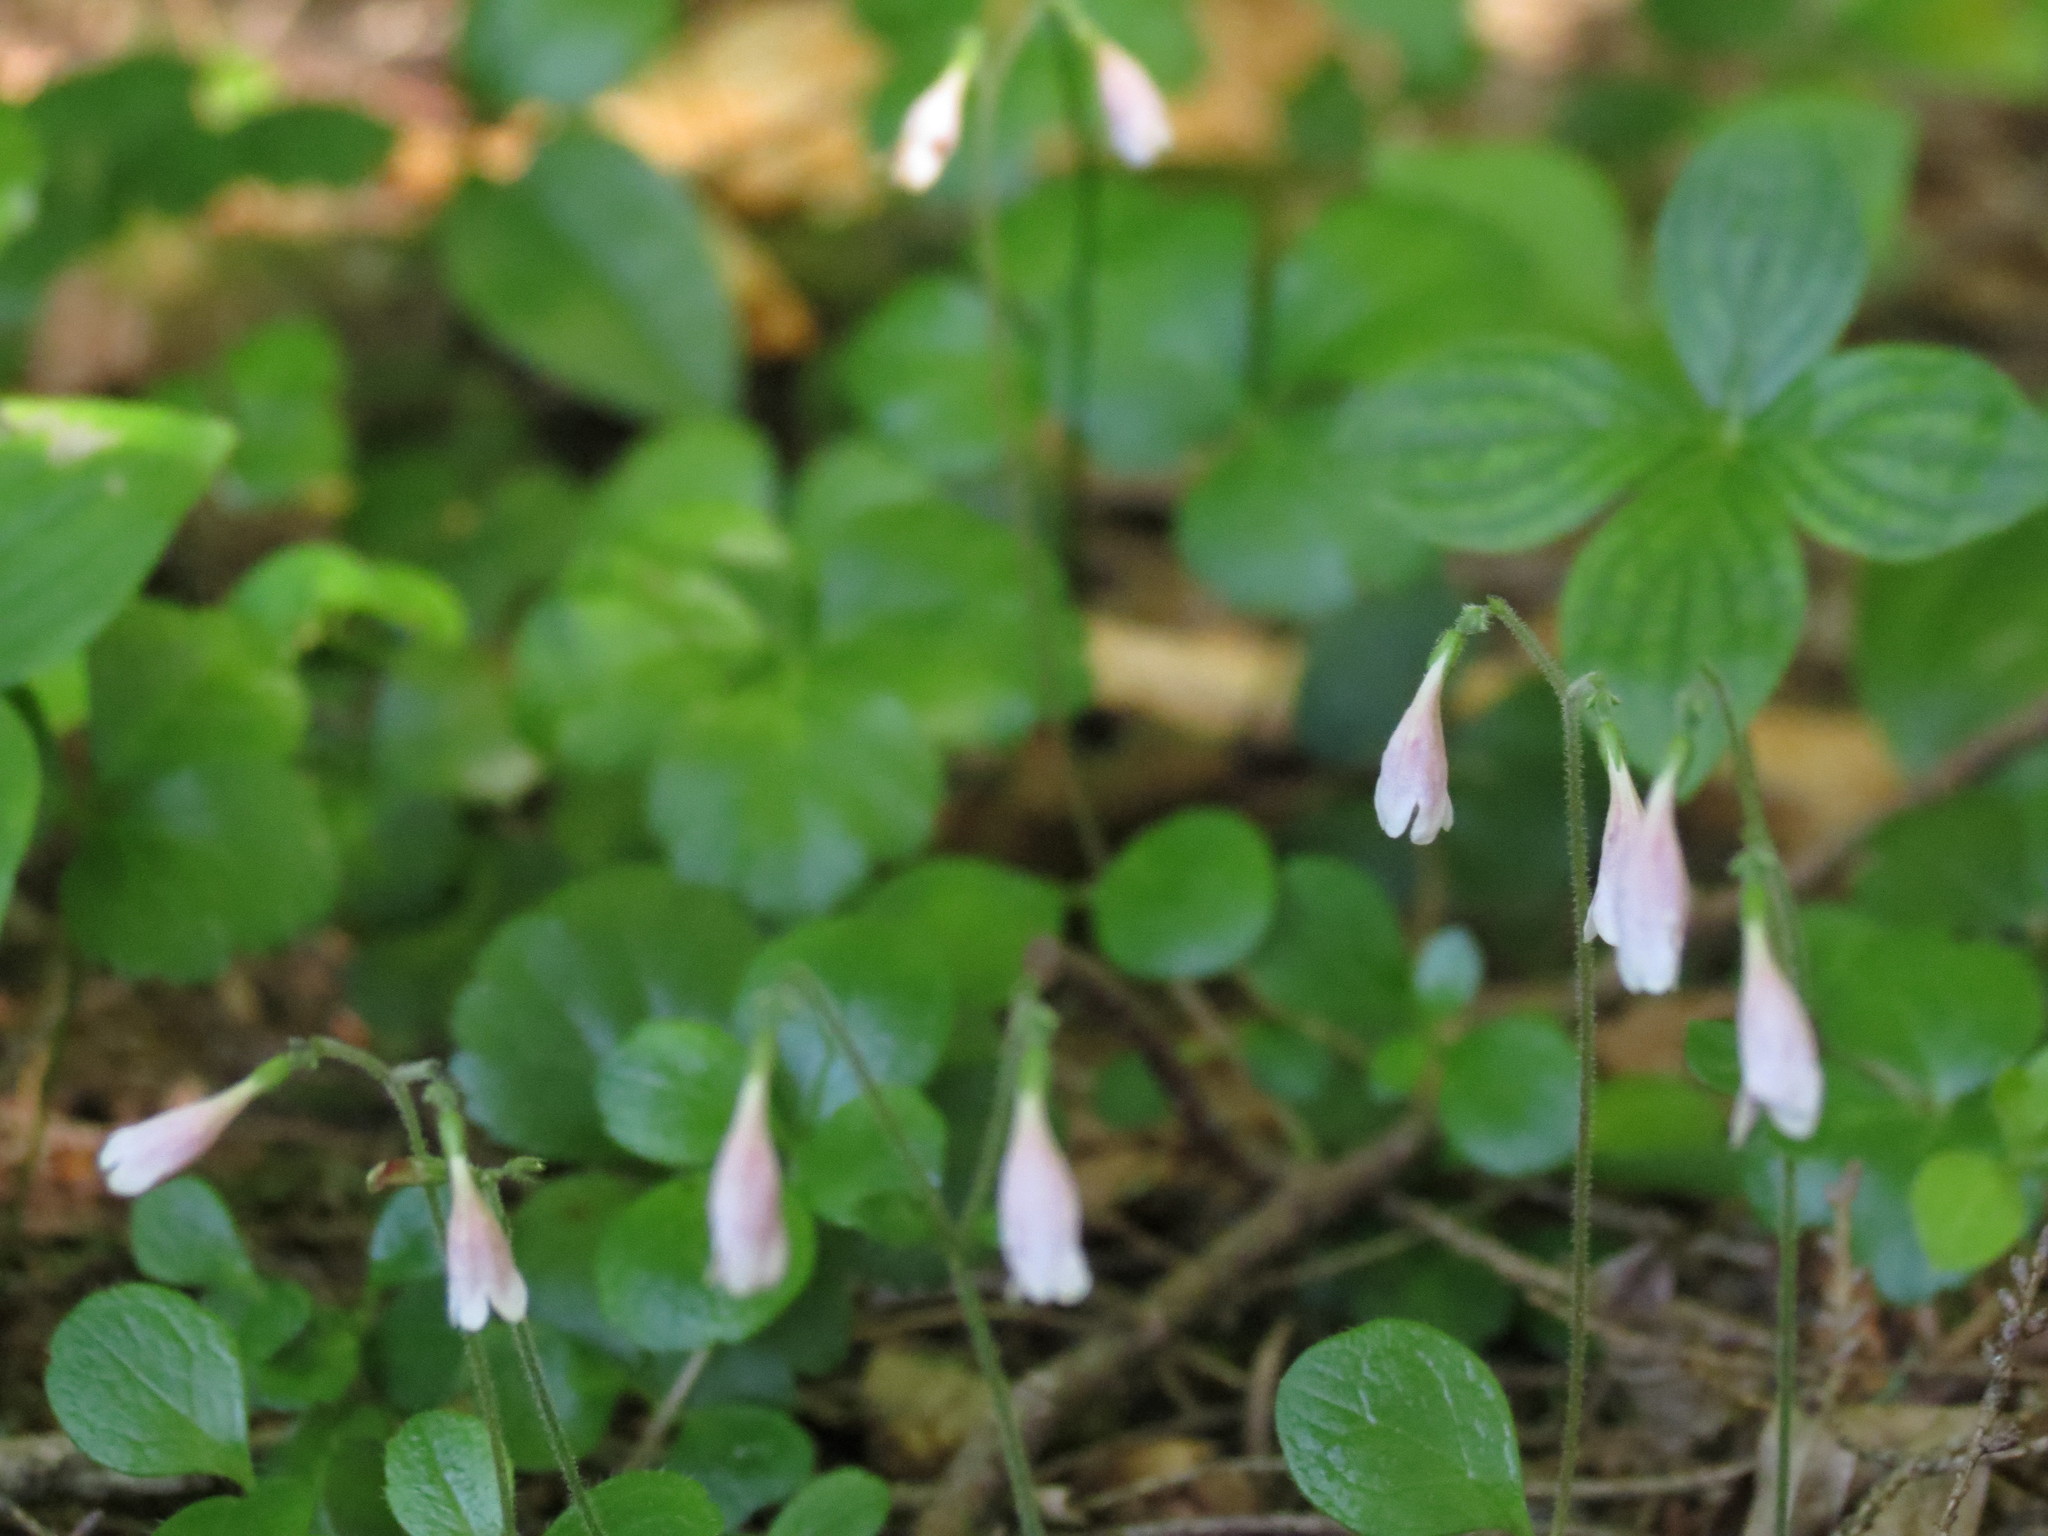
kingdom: Plantae
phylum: Tracheophyta
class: Magnoliopsida
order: Dipsacales
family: Caprifoliaceae
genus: Linnaea
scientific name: Linnaea borealis
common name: Twinflower
